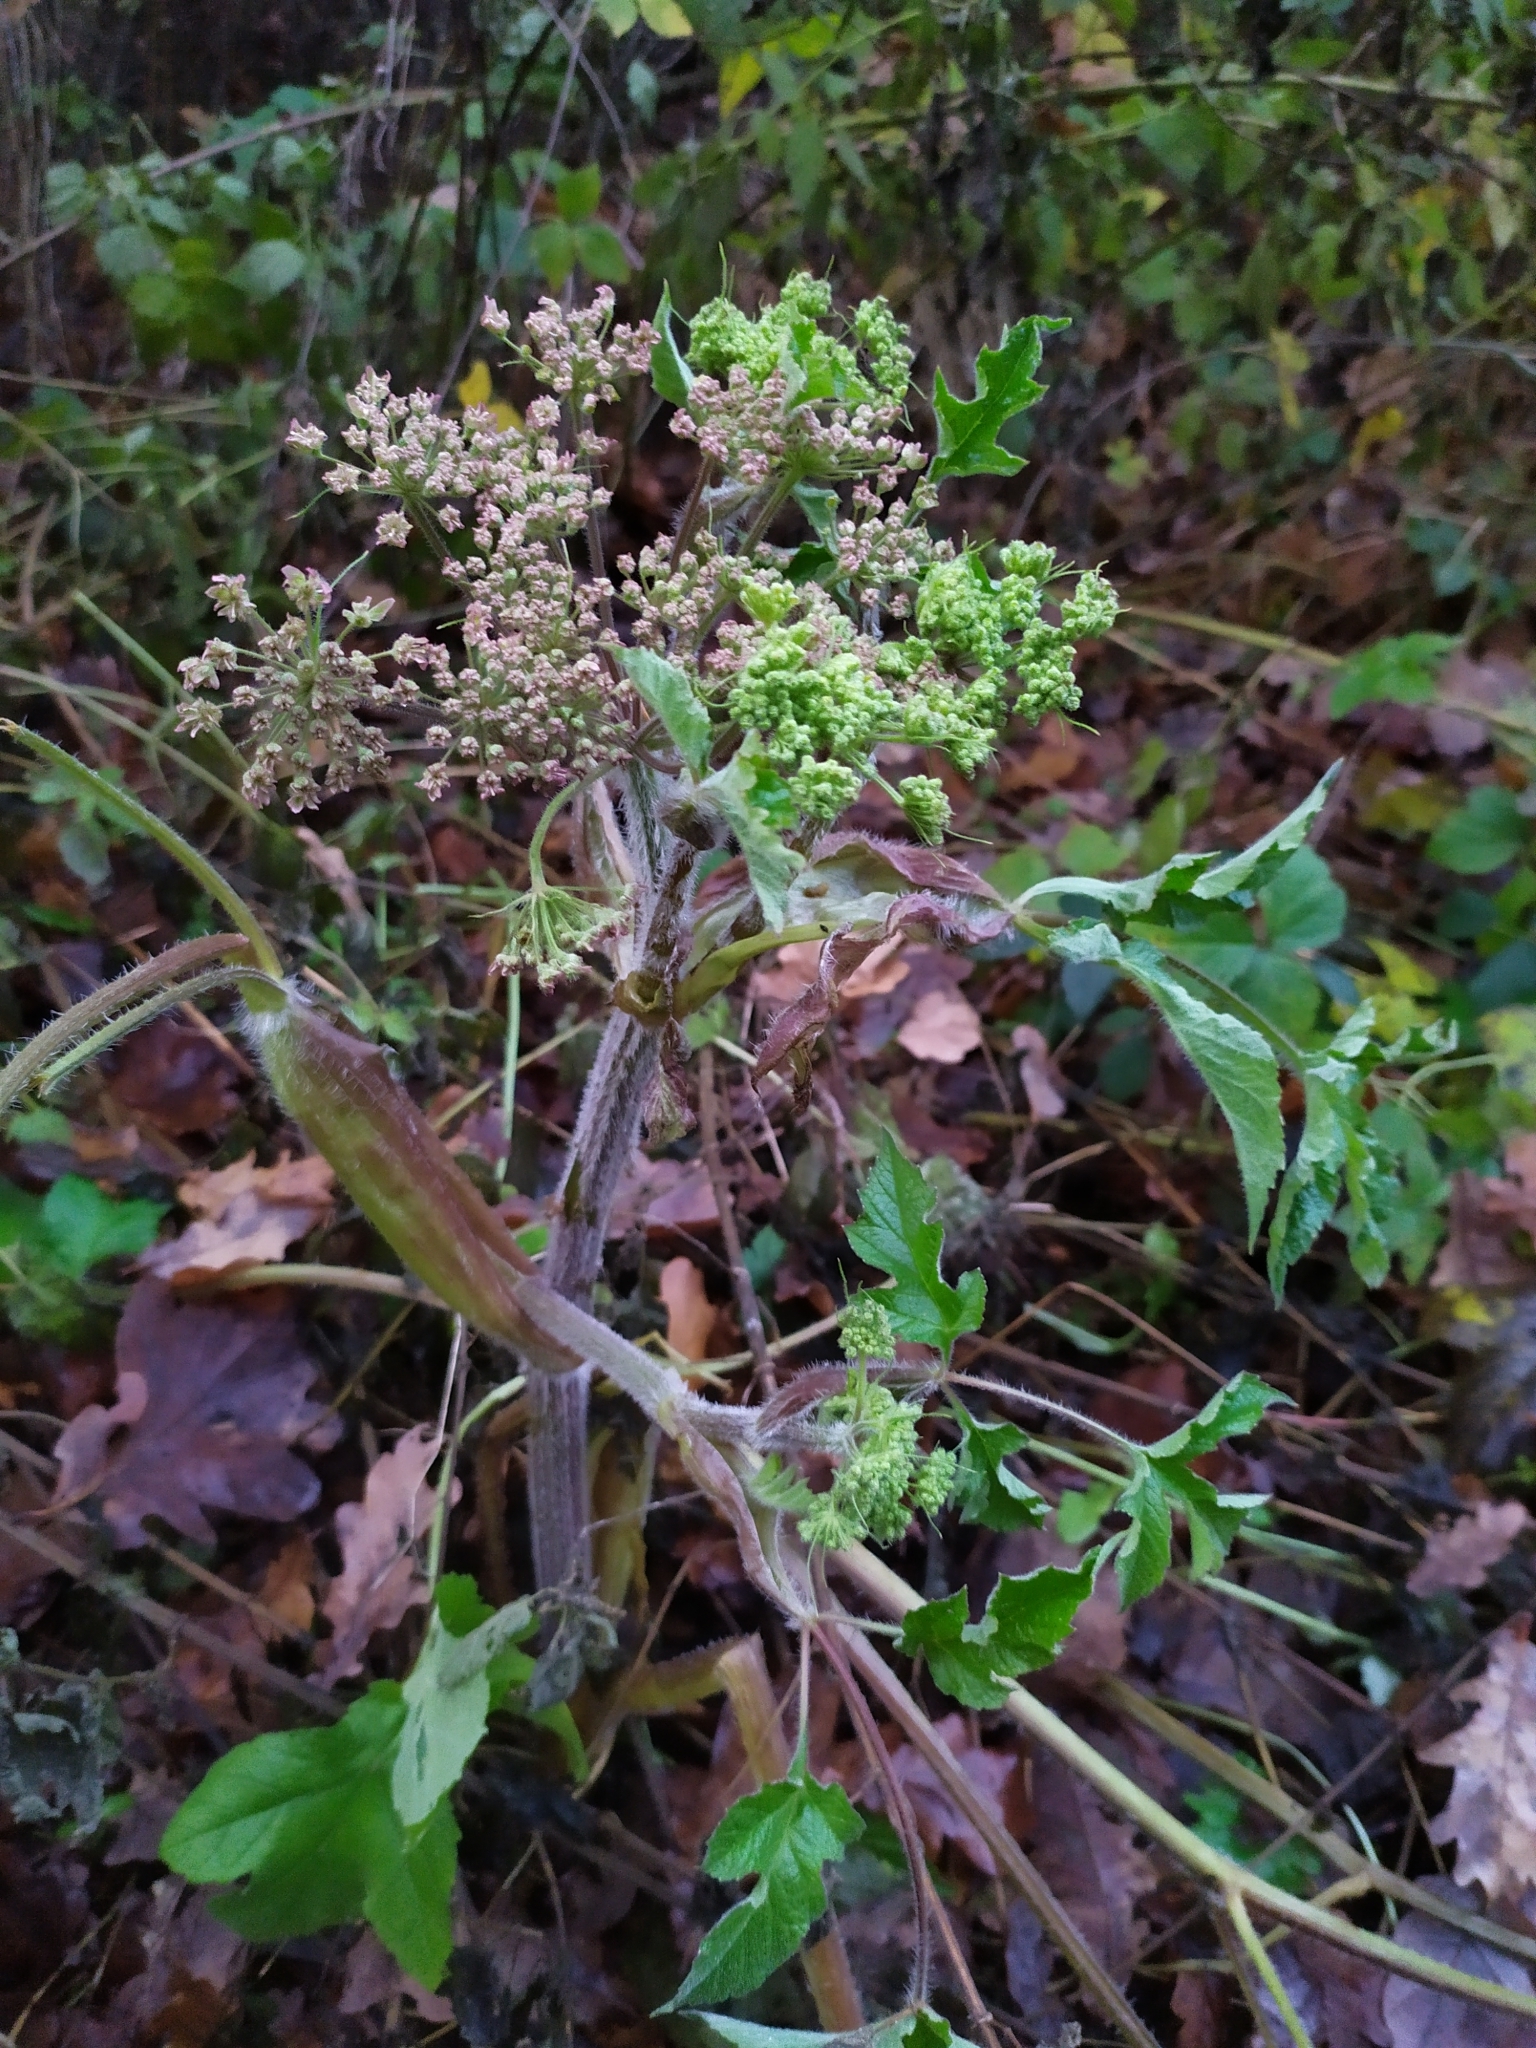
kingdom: Plantae
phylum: Tracheophyta
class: Magnoliopsida
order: Apiales
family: Apiaceae
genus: Heracleum
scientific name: Heracleum sphondylium
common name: Hogweed
